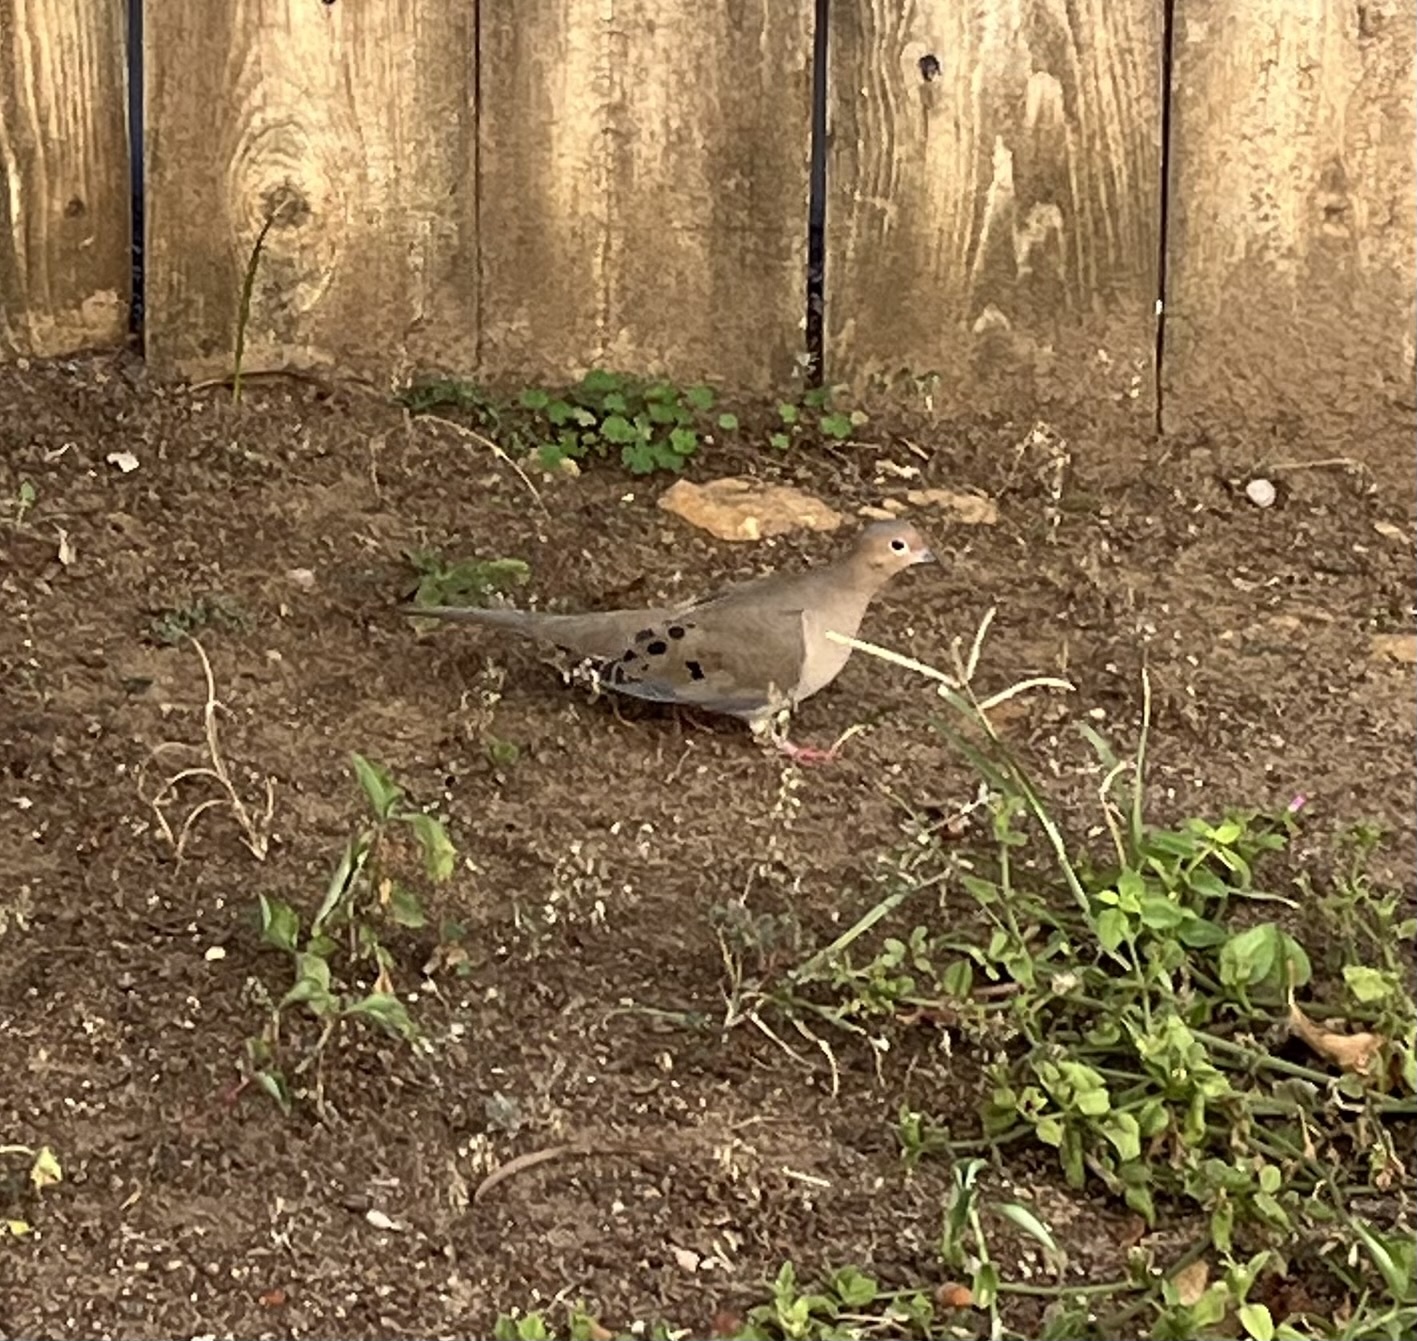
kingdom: Animalia
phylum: Chordata
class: Aves
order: Columbiformes
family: Columbidae
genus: Zenaida
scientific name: Zenaida macroura
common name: Mourning dove
